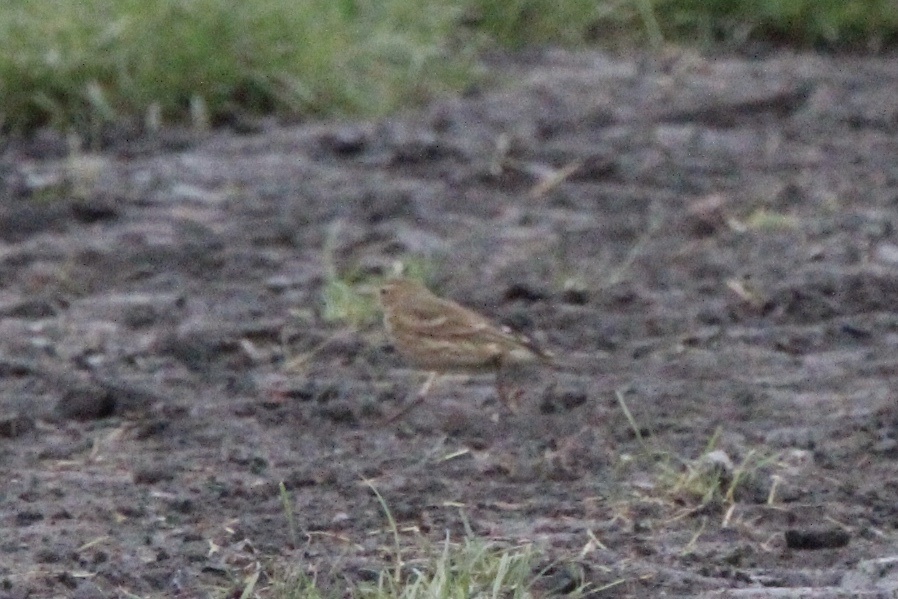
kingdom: Animalia
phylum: Chordata
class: Aves
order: Passeriformes
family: Motacillidae
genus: Anthus
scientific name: Anthus rubescens
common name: Buff-bellied pipit
